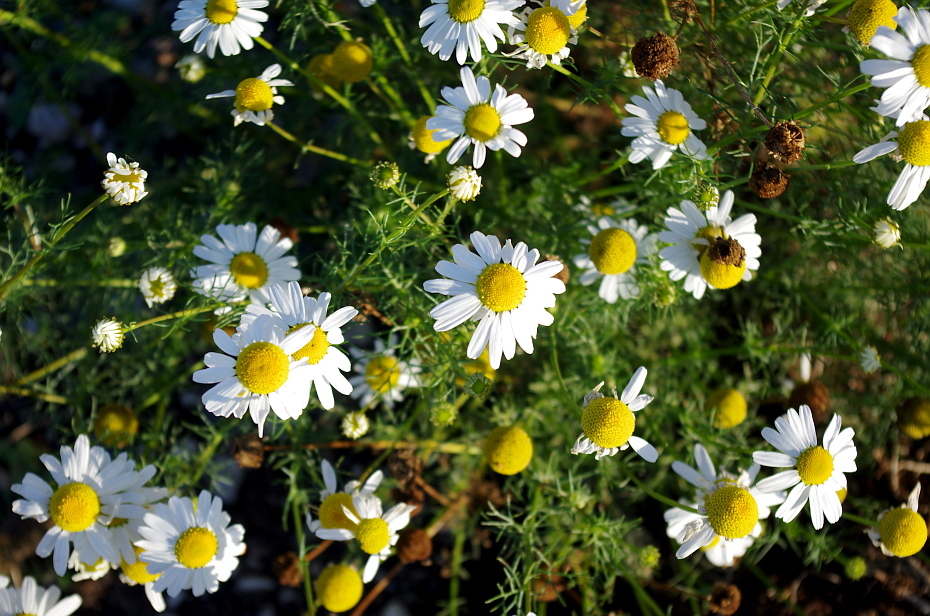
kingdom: Plantae
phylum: Tracheophyta
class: Magnoliopsida
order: Asterales
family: Asteraceae
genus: Tripleurospermum
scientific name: Tripleurospermum inodorum
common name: Scentless mayweed
